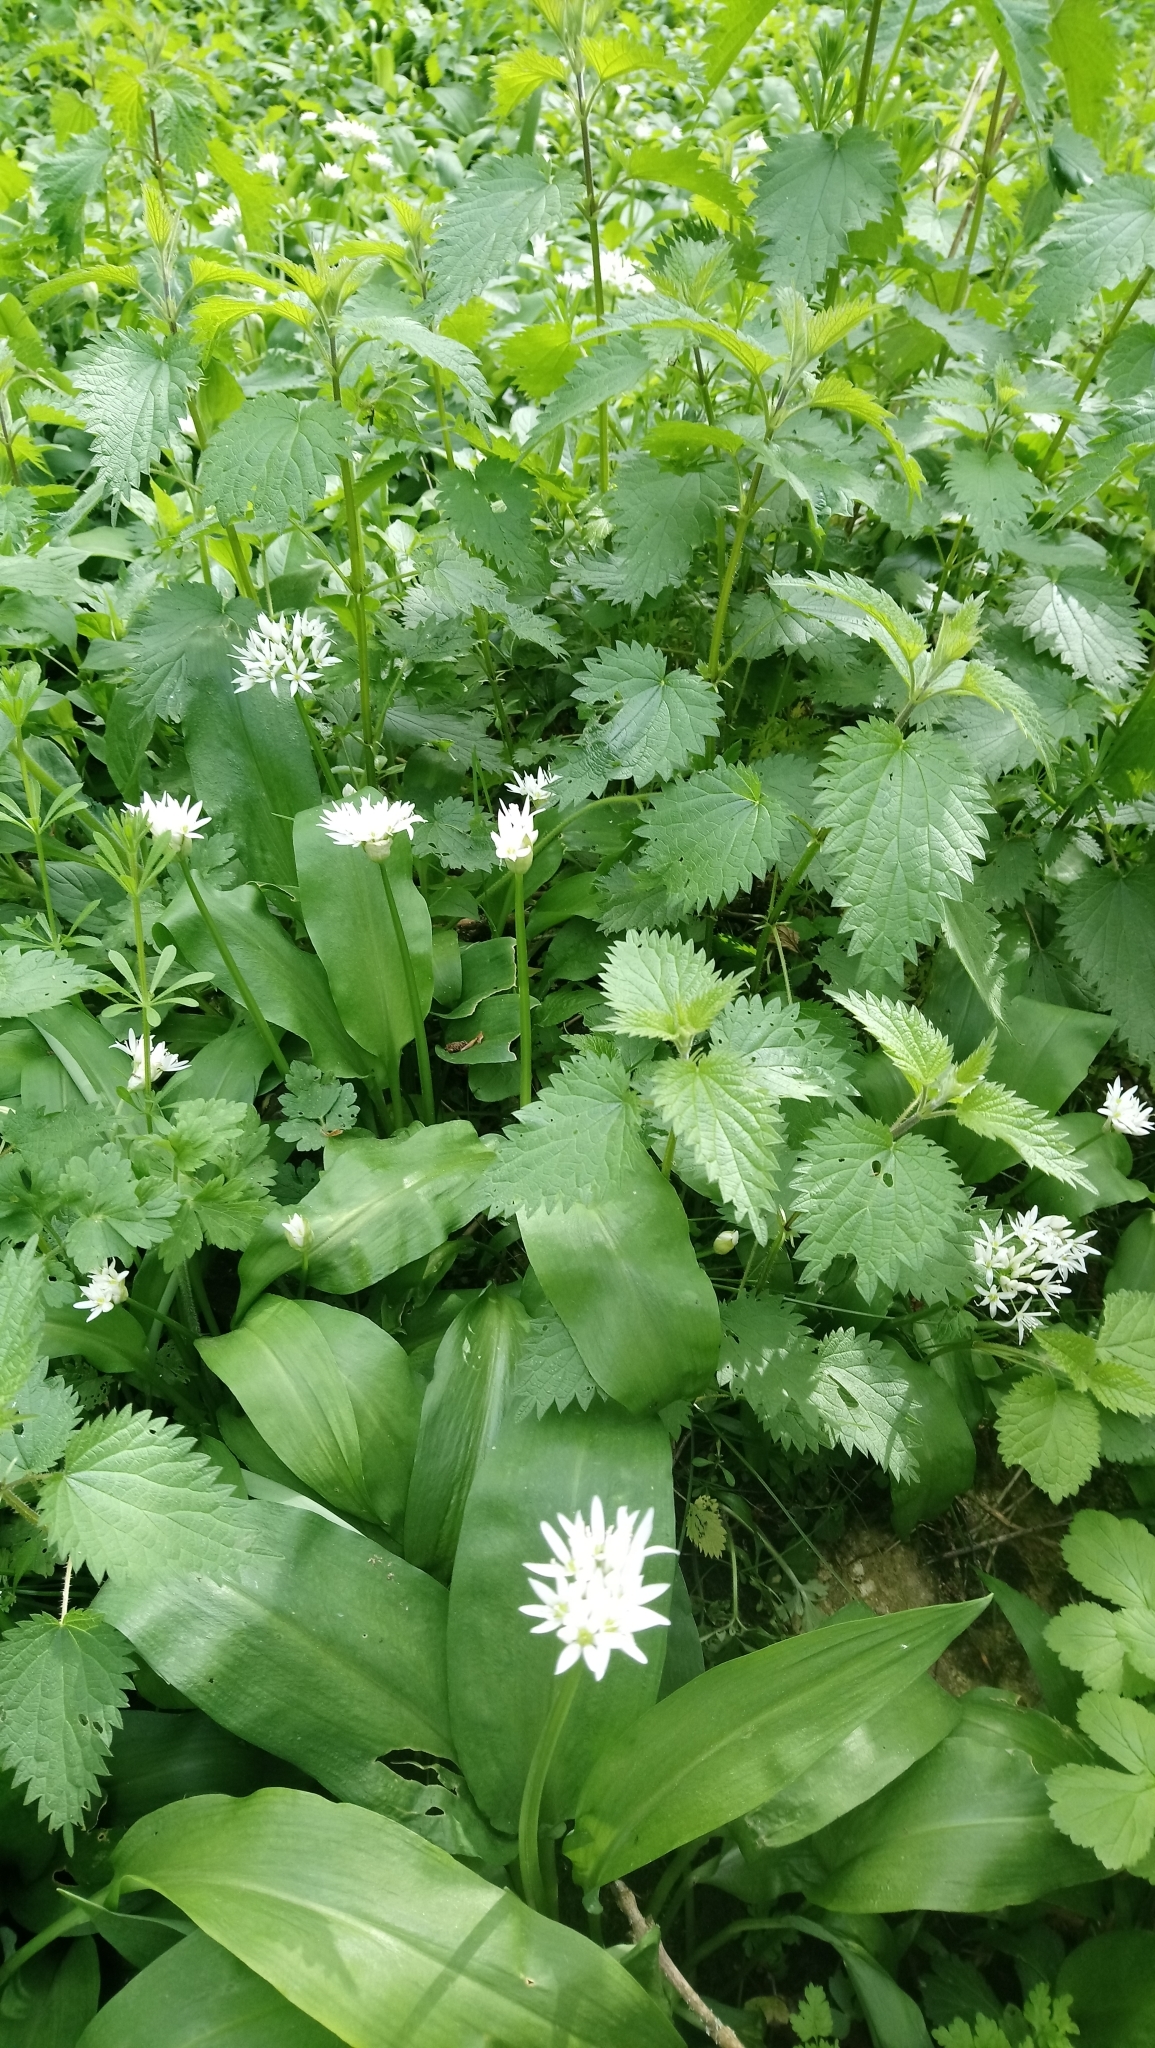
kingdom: Plantae
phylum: Tracheophyta
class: Liliopsida
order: Asparagales
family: Amaryllidaceae
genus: Allium
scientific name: Allium ursinum
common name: Ramsons
